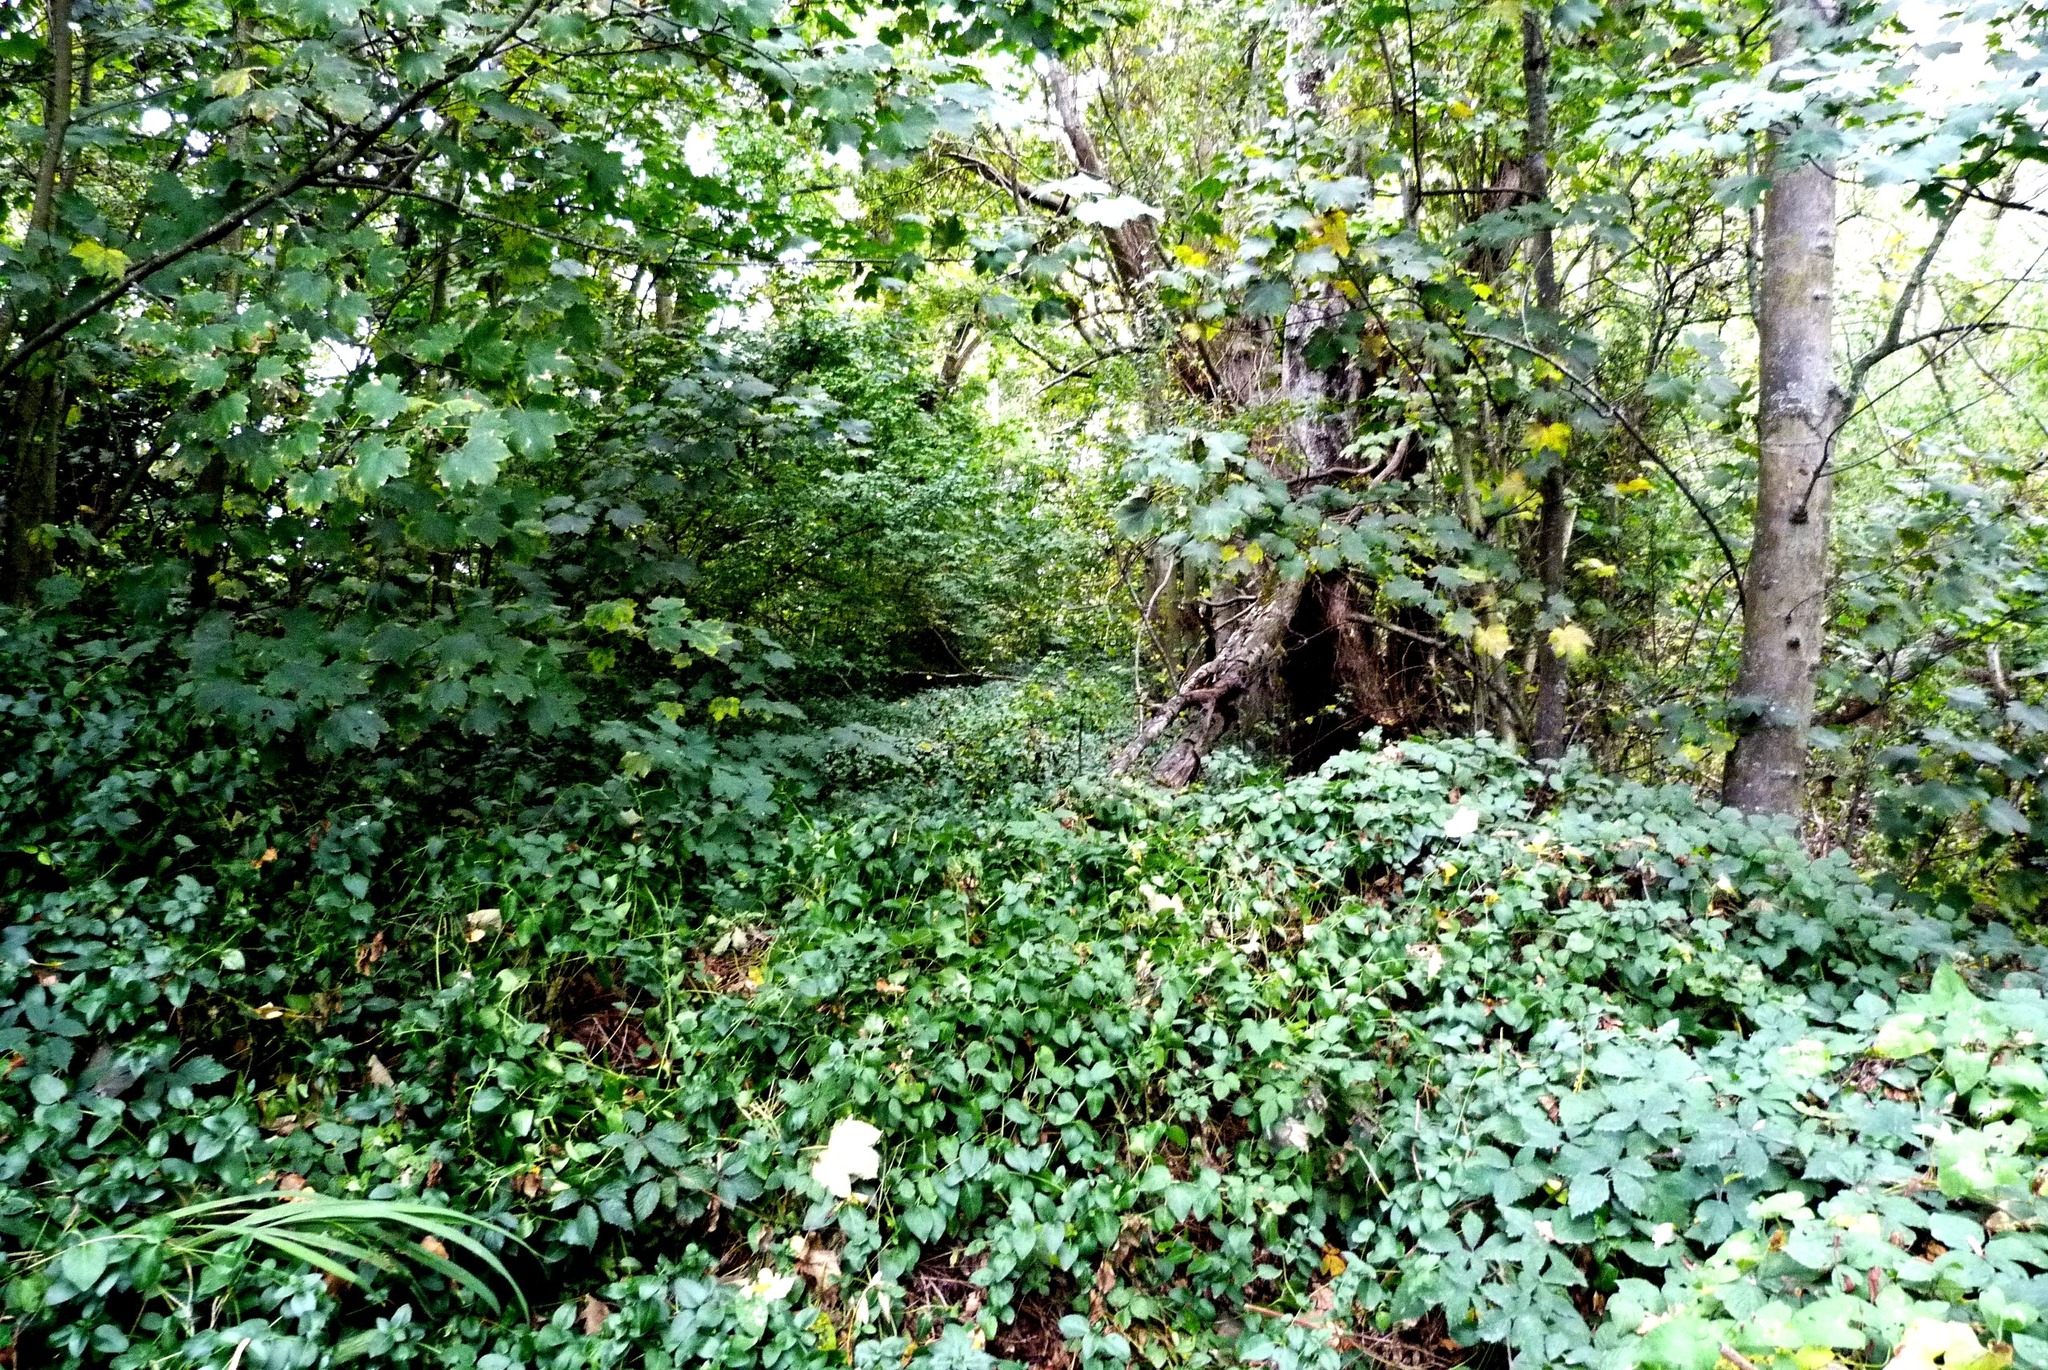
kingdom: Plantae
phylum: Tracheophyta
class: Magnoliopsida
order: Sapindales
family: Sapindaceae
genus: Acer
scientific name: Acer pseudoplatanus
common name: Sycamore
